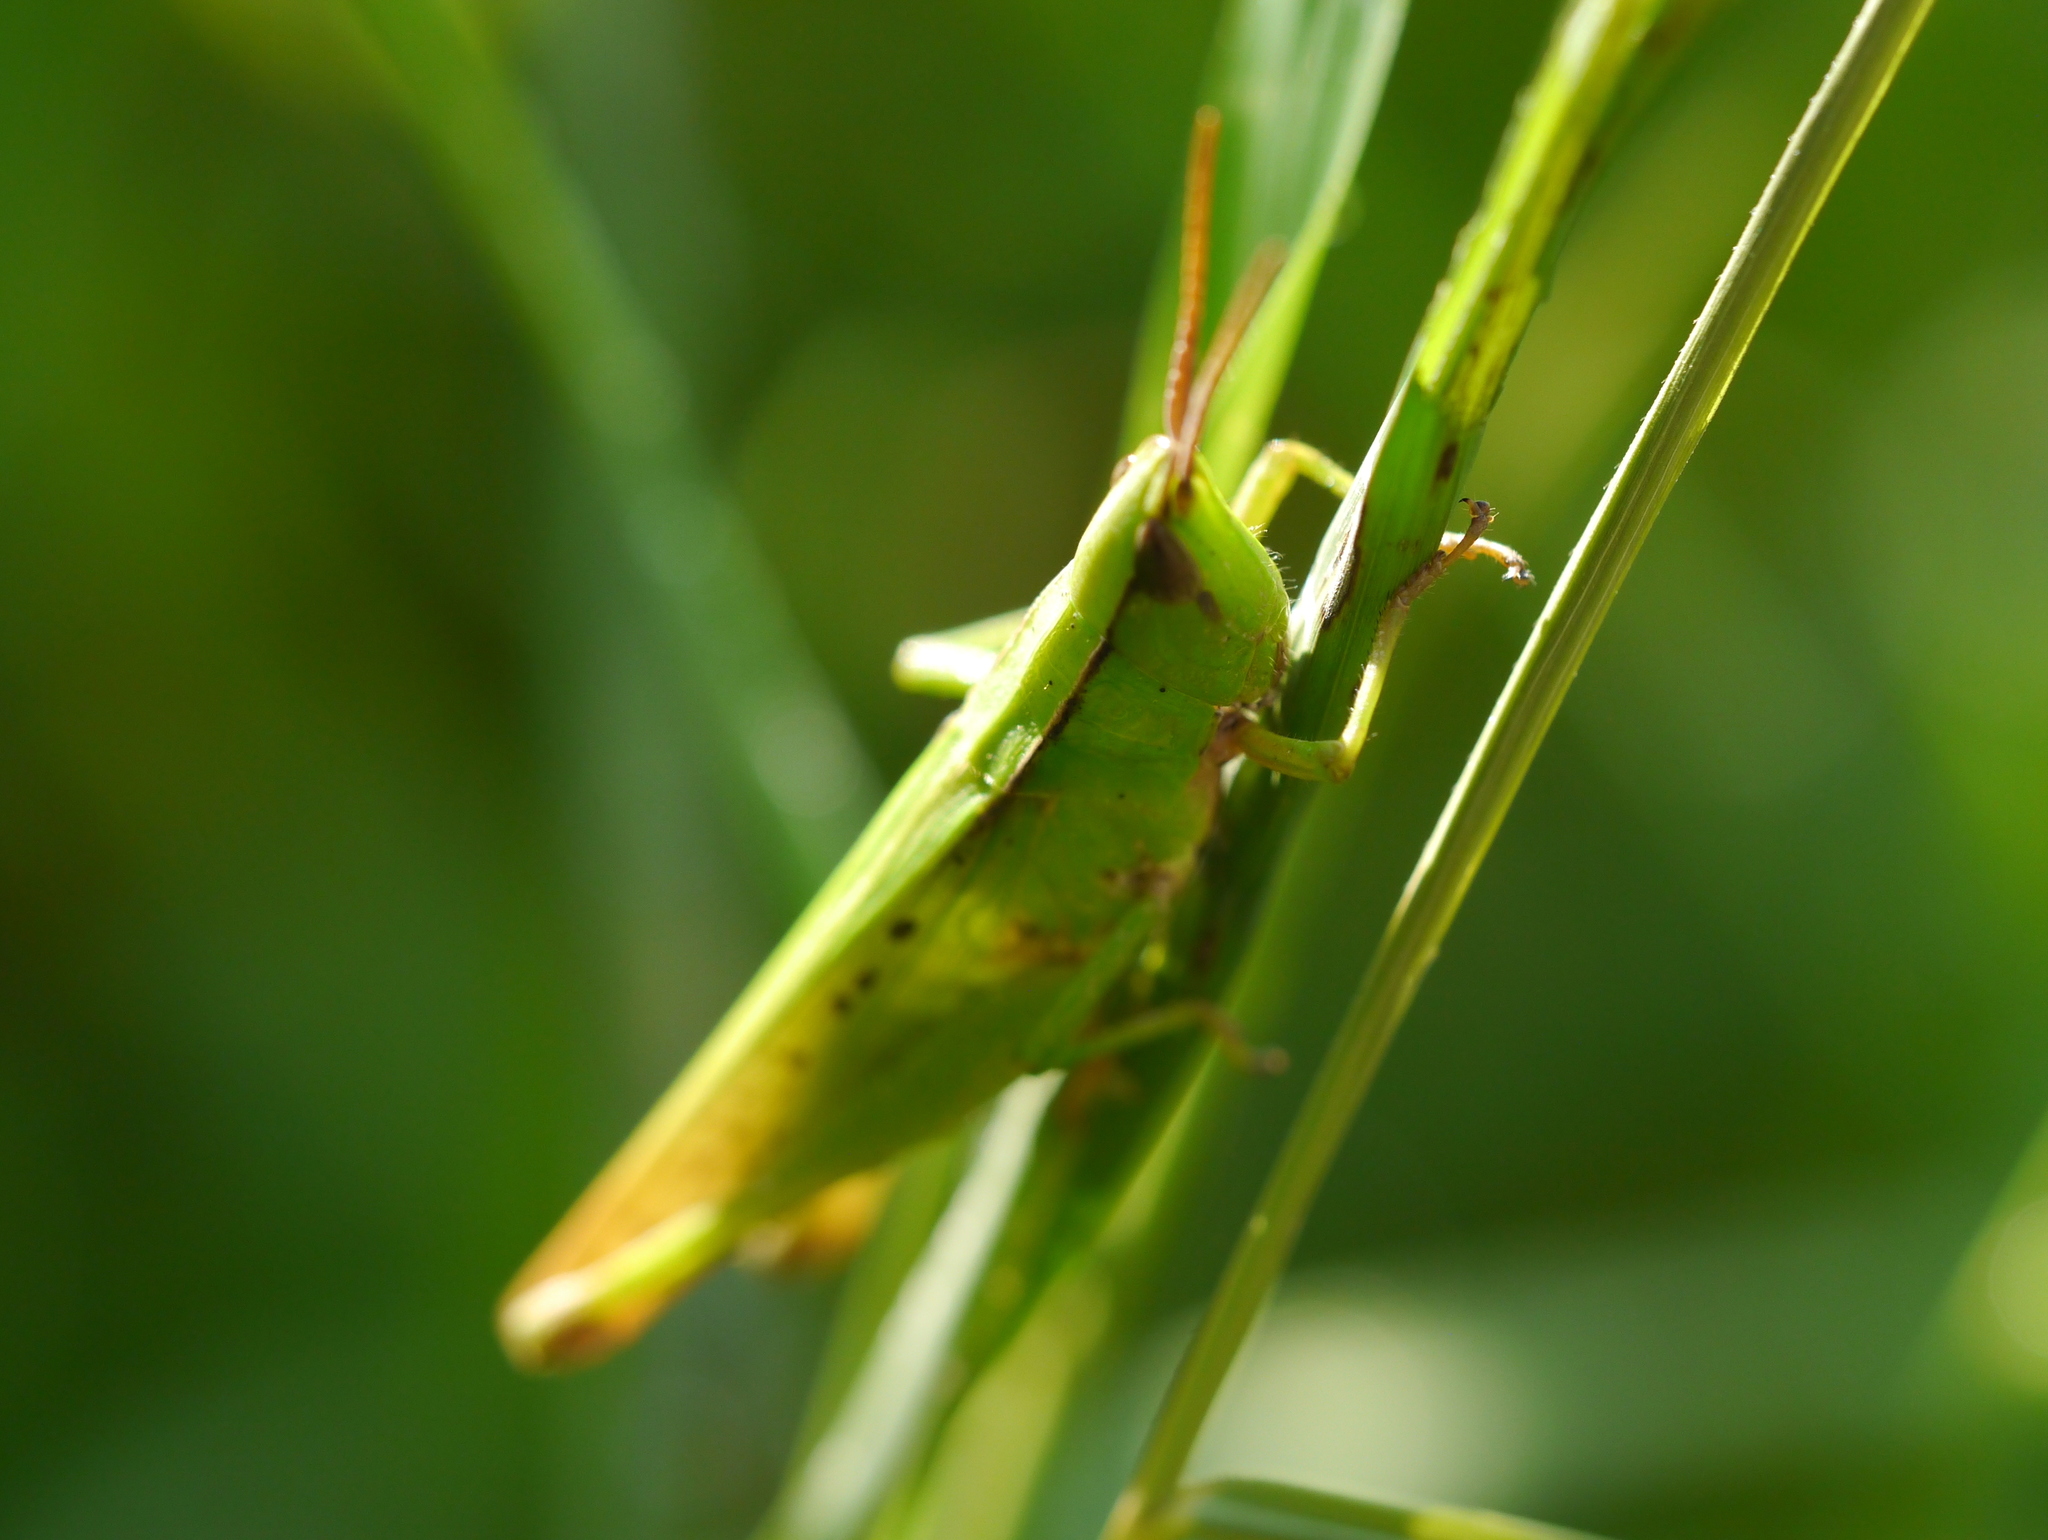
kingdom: Animalia
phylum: Arthropoda
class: Insecta
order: Orthoptera
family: Acrididae
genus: Metaleptea
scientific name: Metaleptea brevicornis
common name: Clipped-wing grasshopper
